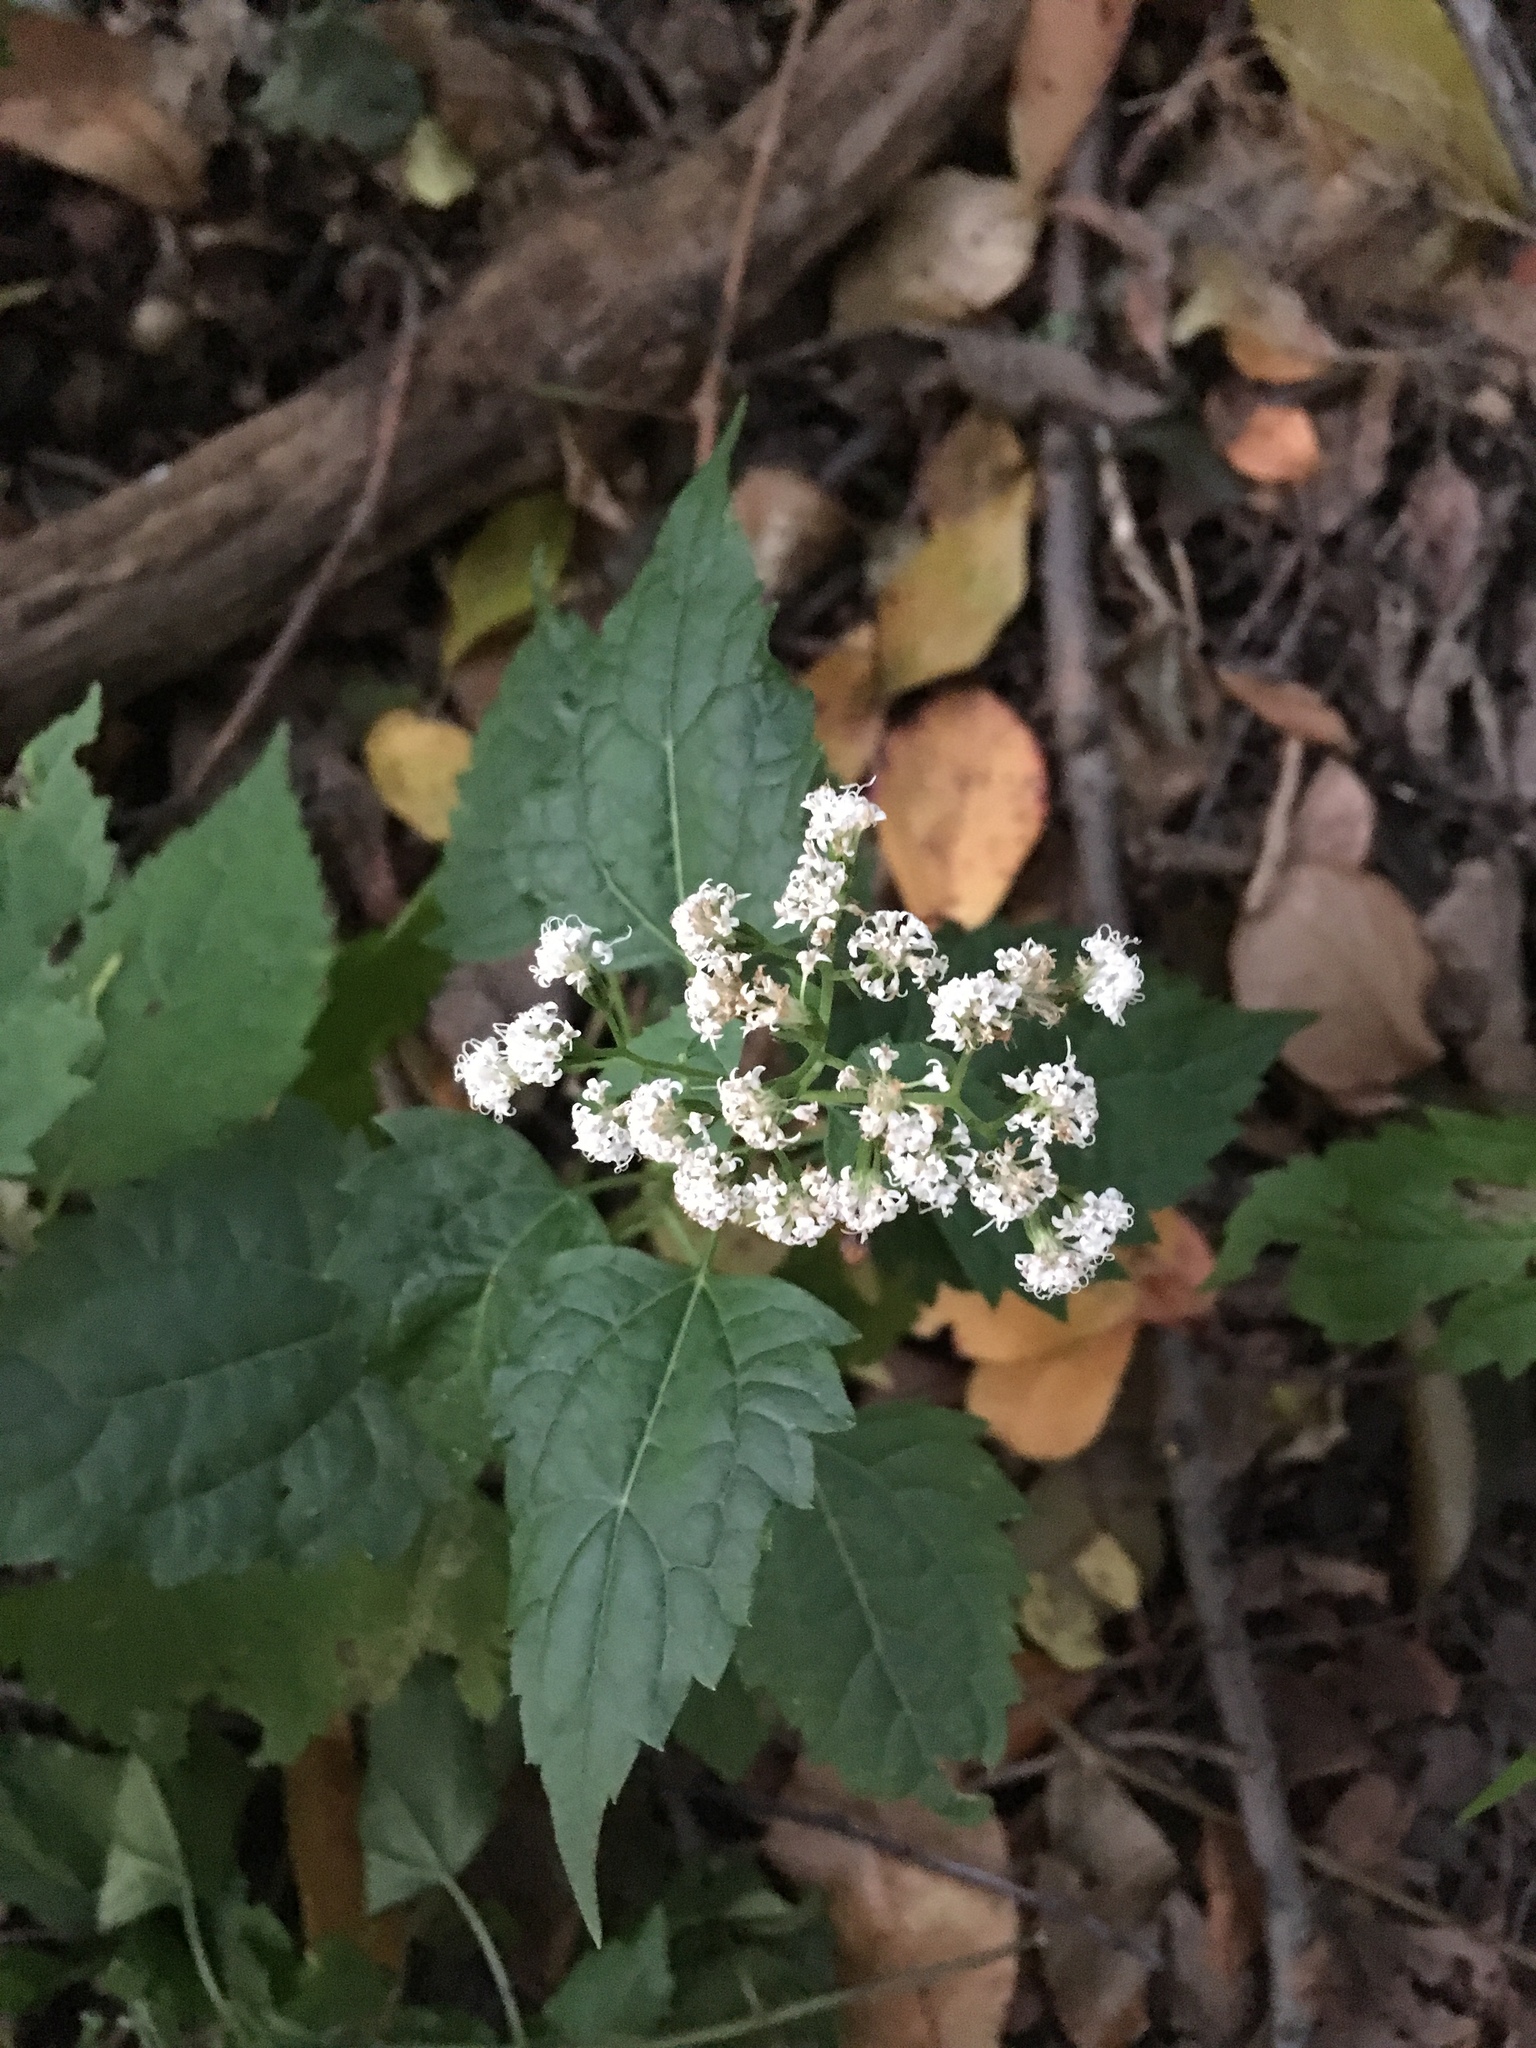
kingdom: Plantae
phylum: Tracheophyta
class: Magnoliopsida
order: Asterales
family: Asteraceae
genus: Ageratina
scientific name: Ageratina altissima
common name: White snakeroot
